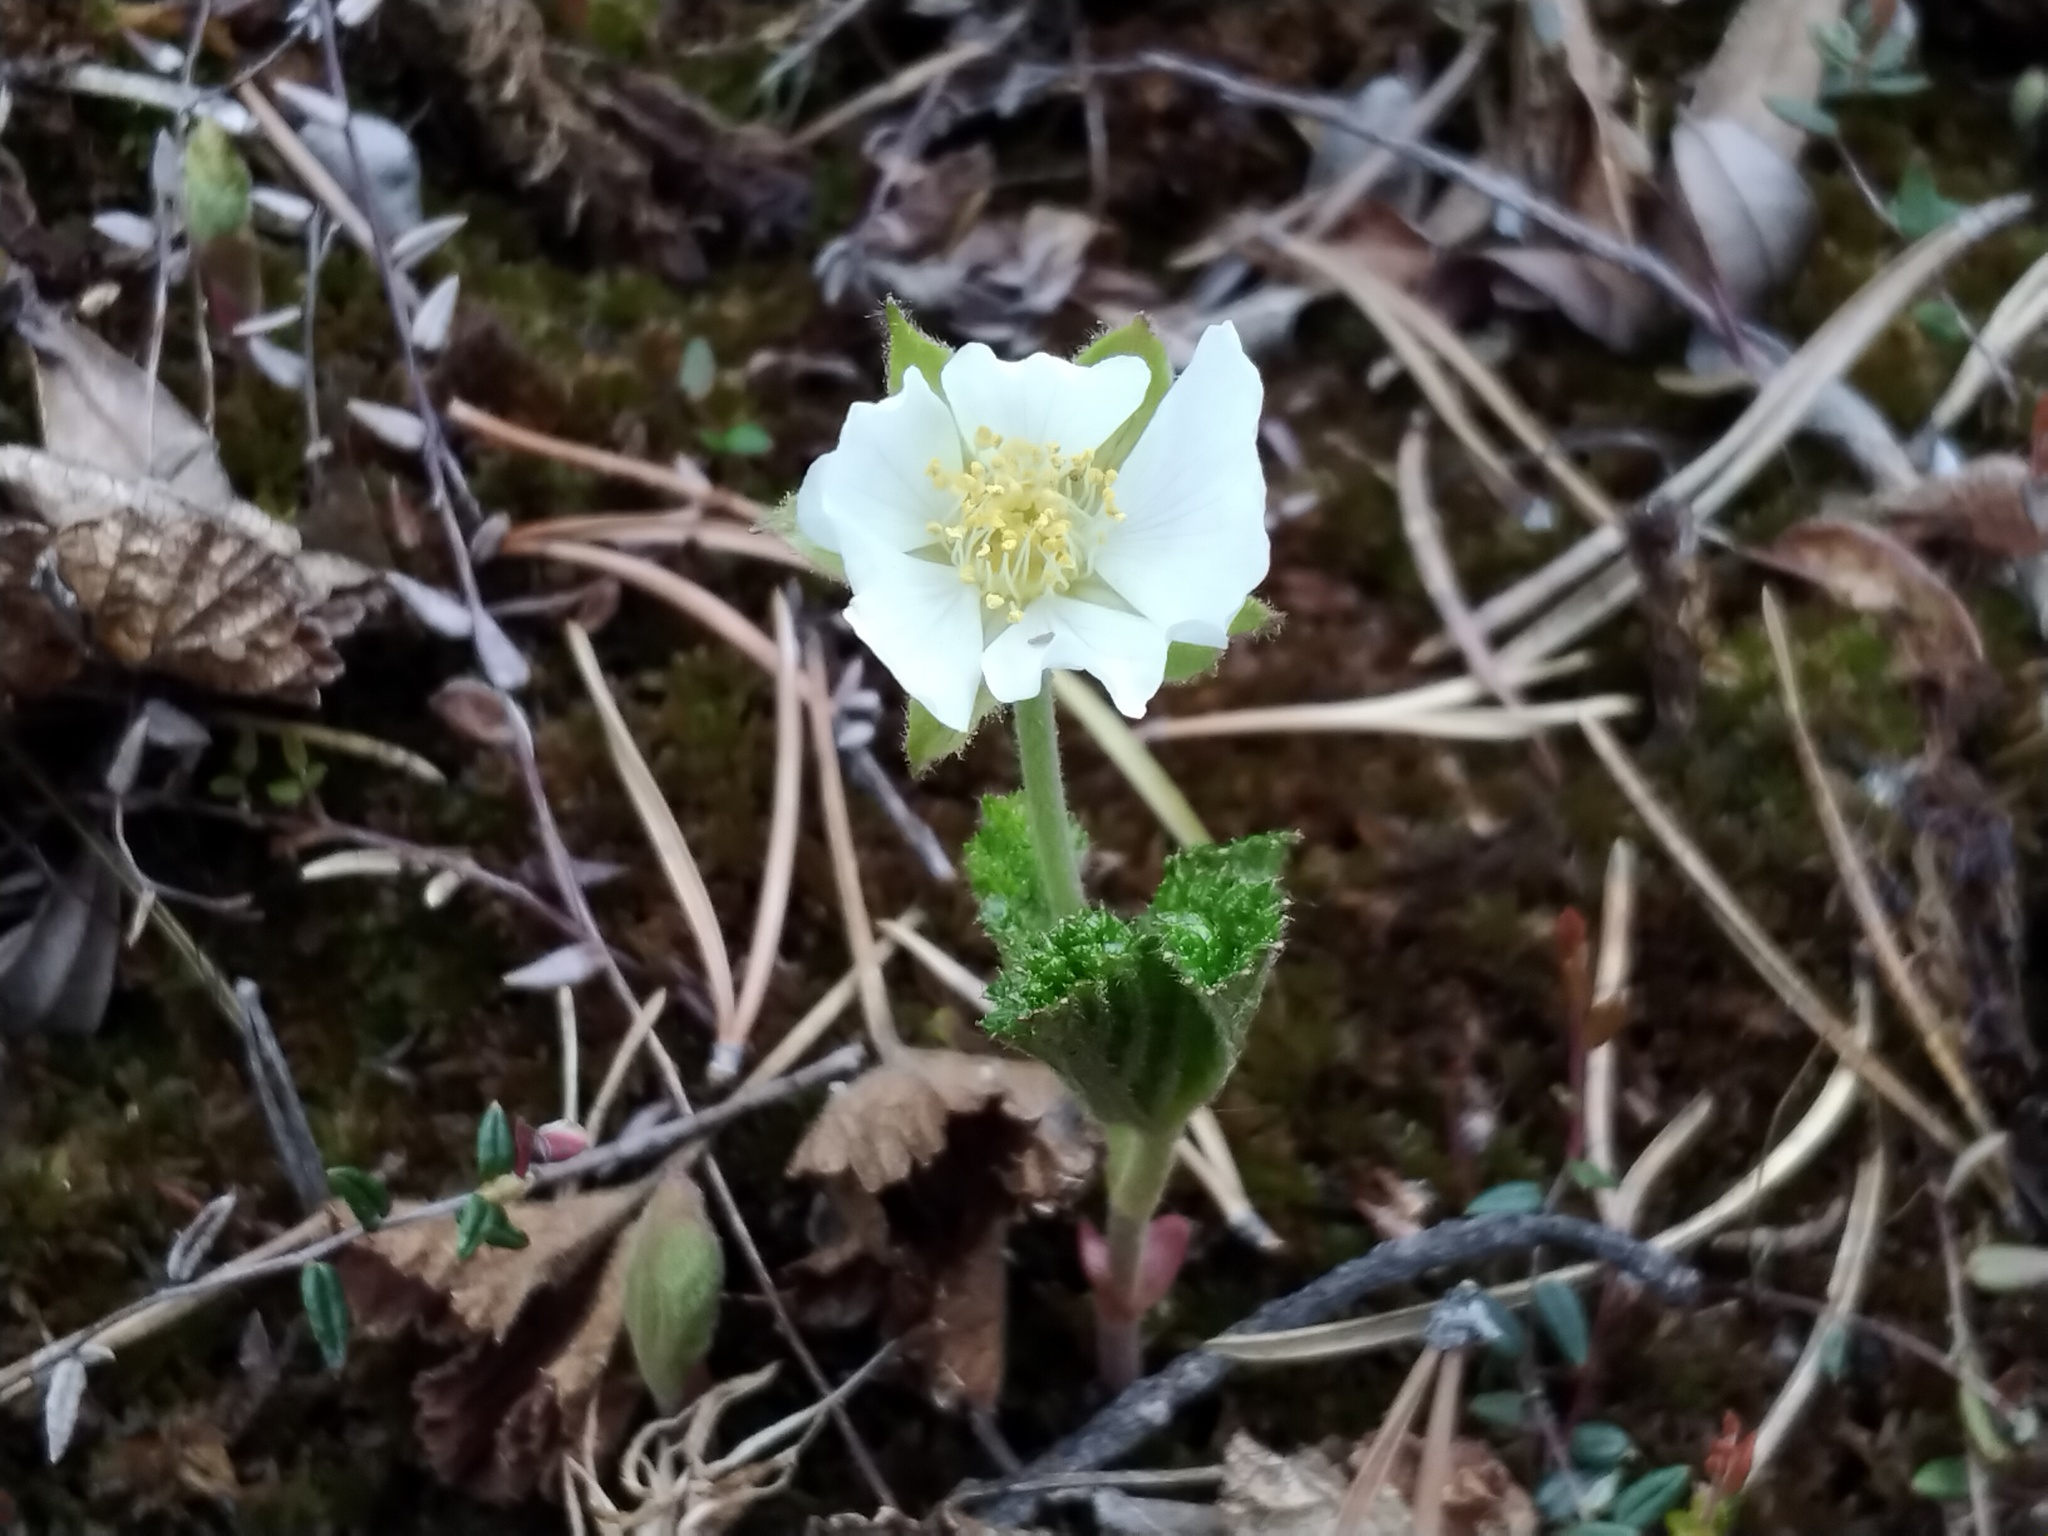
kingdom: Plantae
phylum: Tracheophyta
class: Magnoliopsida
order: Rosales
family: Rosaceae
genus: Rubus
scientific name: Rubus chamaemorus
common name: Cloudberry
